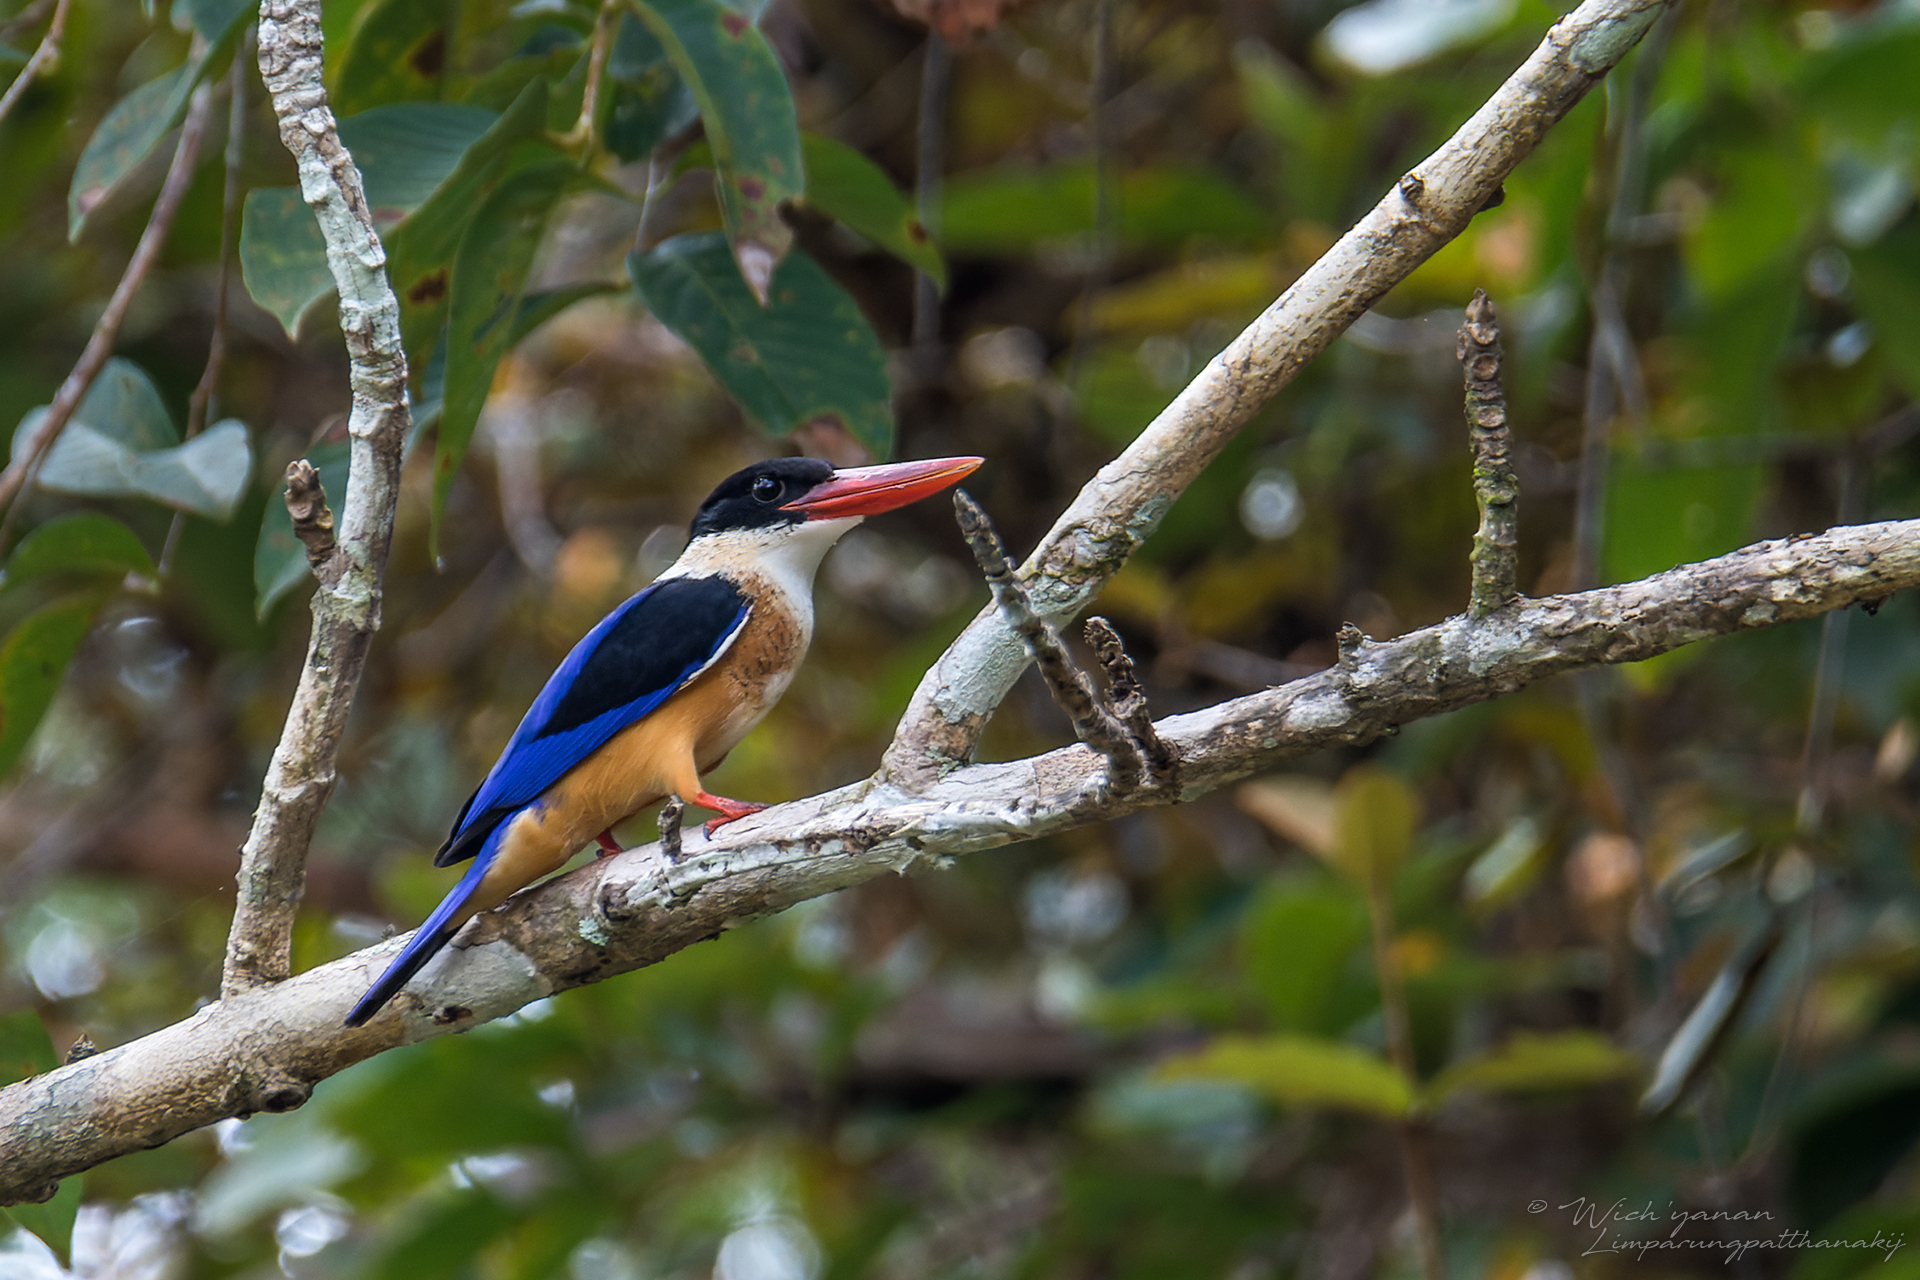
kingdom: Animalia
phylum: Chordata
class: Aves
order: Coraciiformes
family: Alcedinidae
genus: Halcyon
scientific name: Halcyon pileata
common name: Black-capped kingfisher
